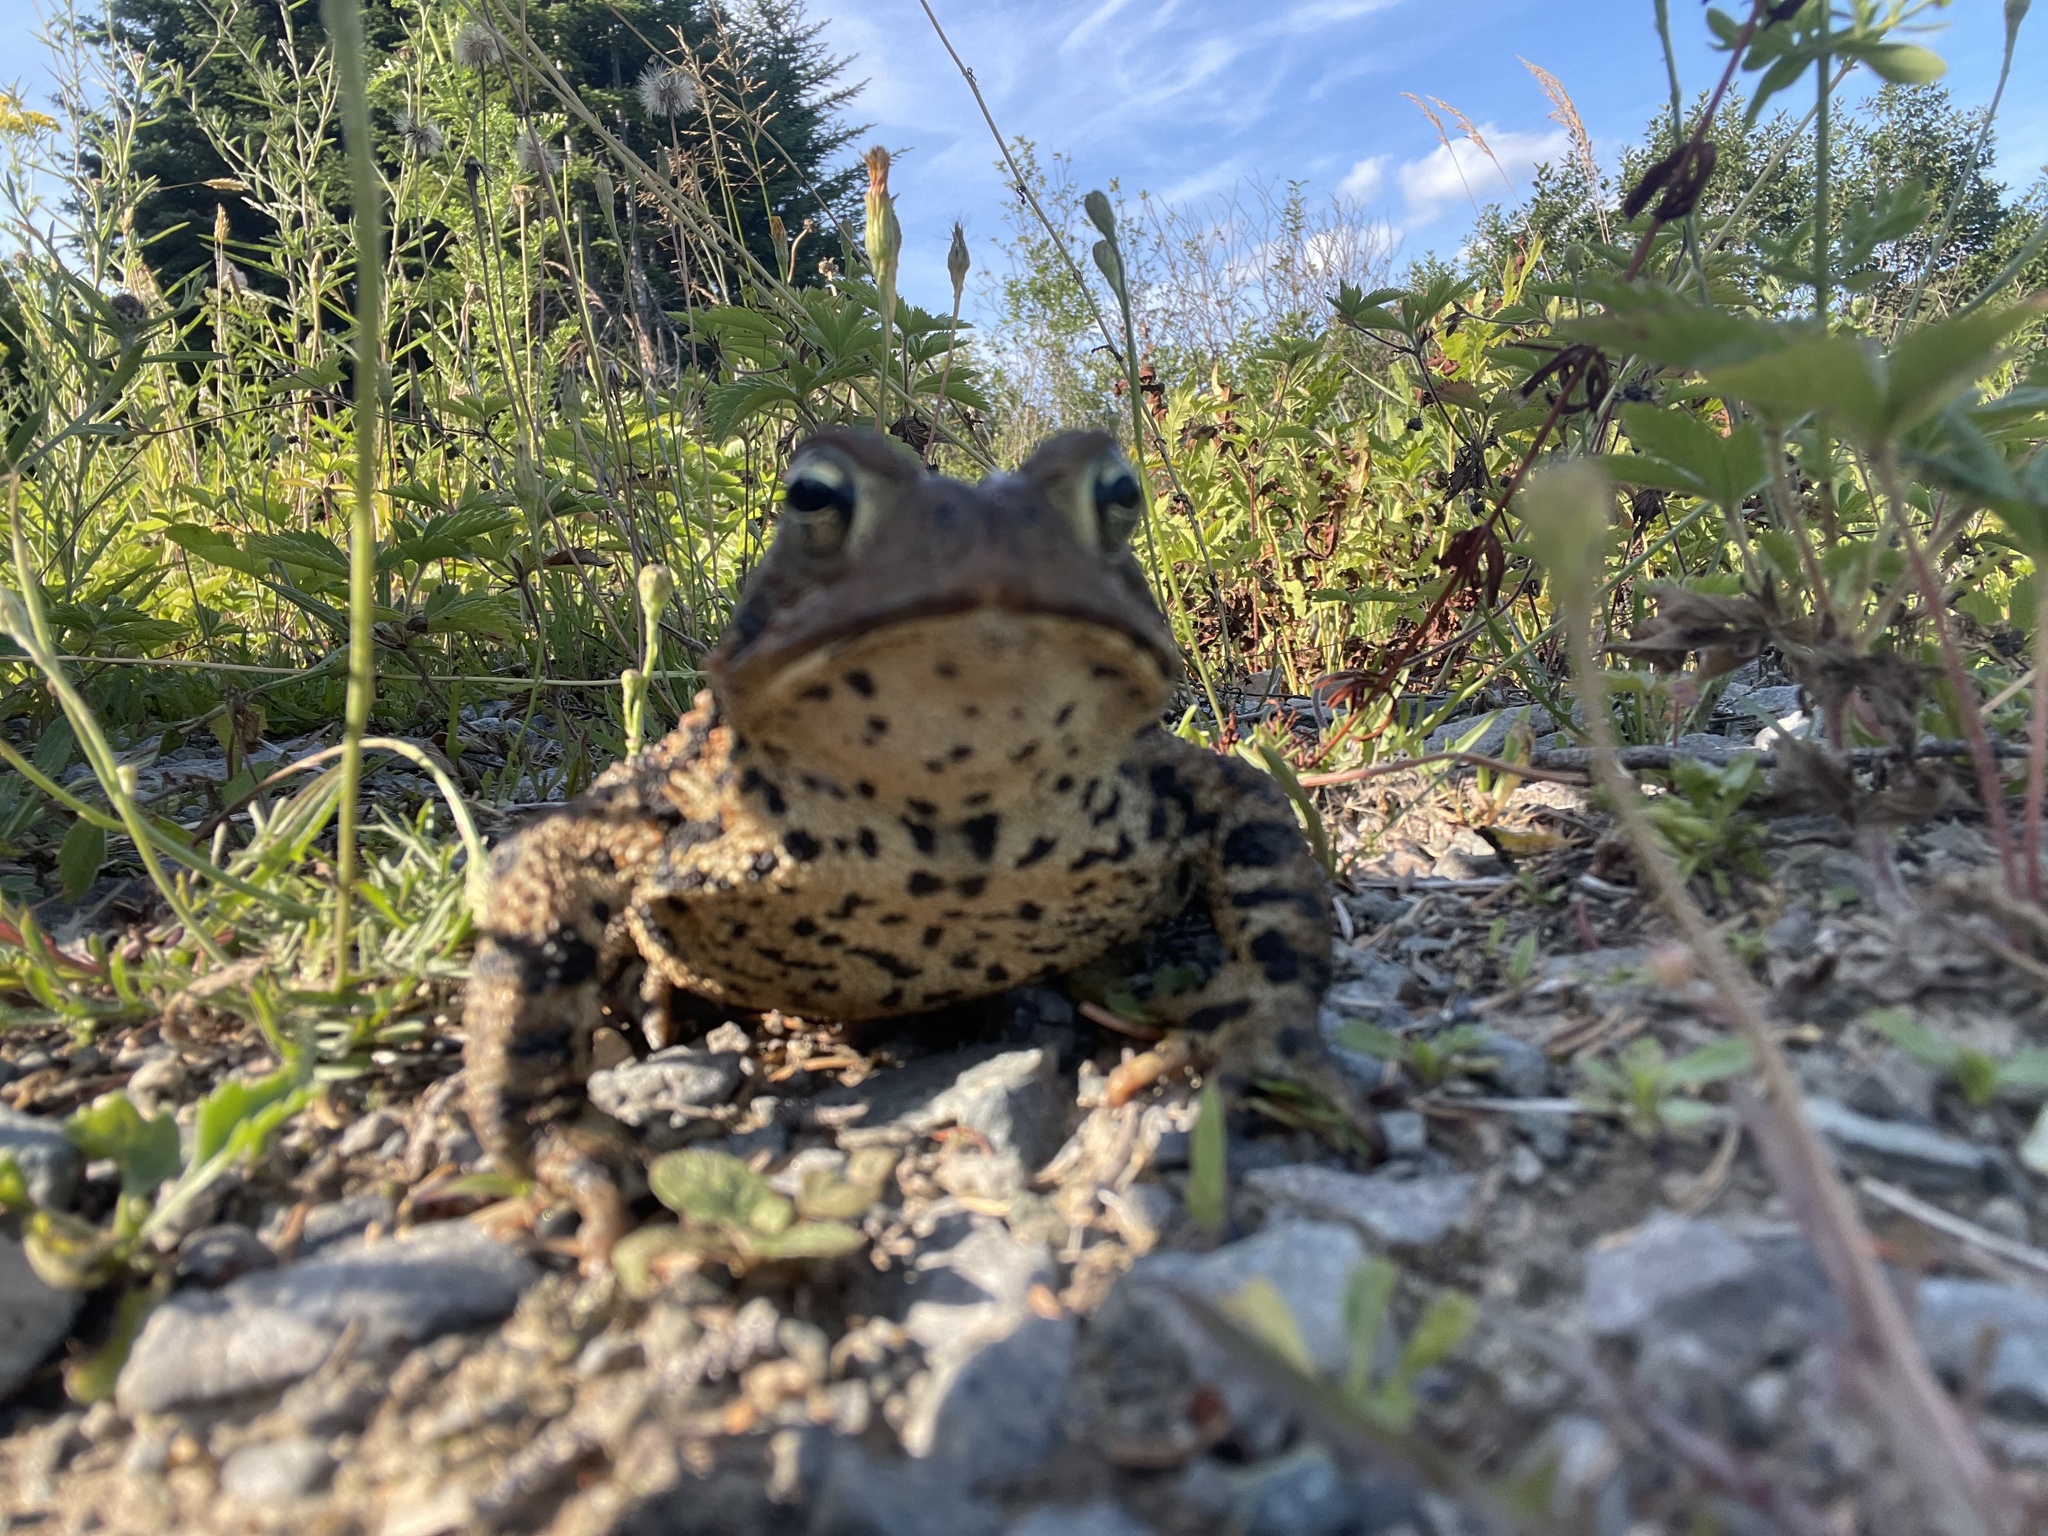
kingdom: Animalia
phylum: Chordata
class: Amphibia
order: Anura
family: Bufonidae
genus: Anaxyrus
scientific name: Anaxyrus americanus
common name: American toad
